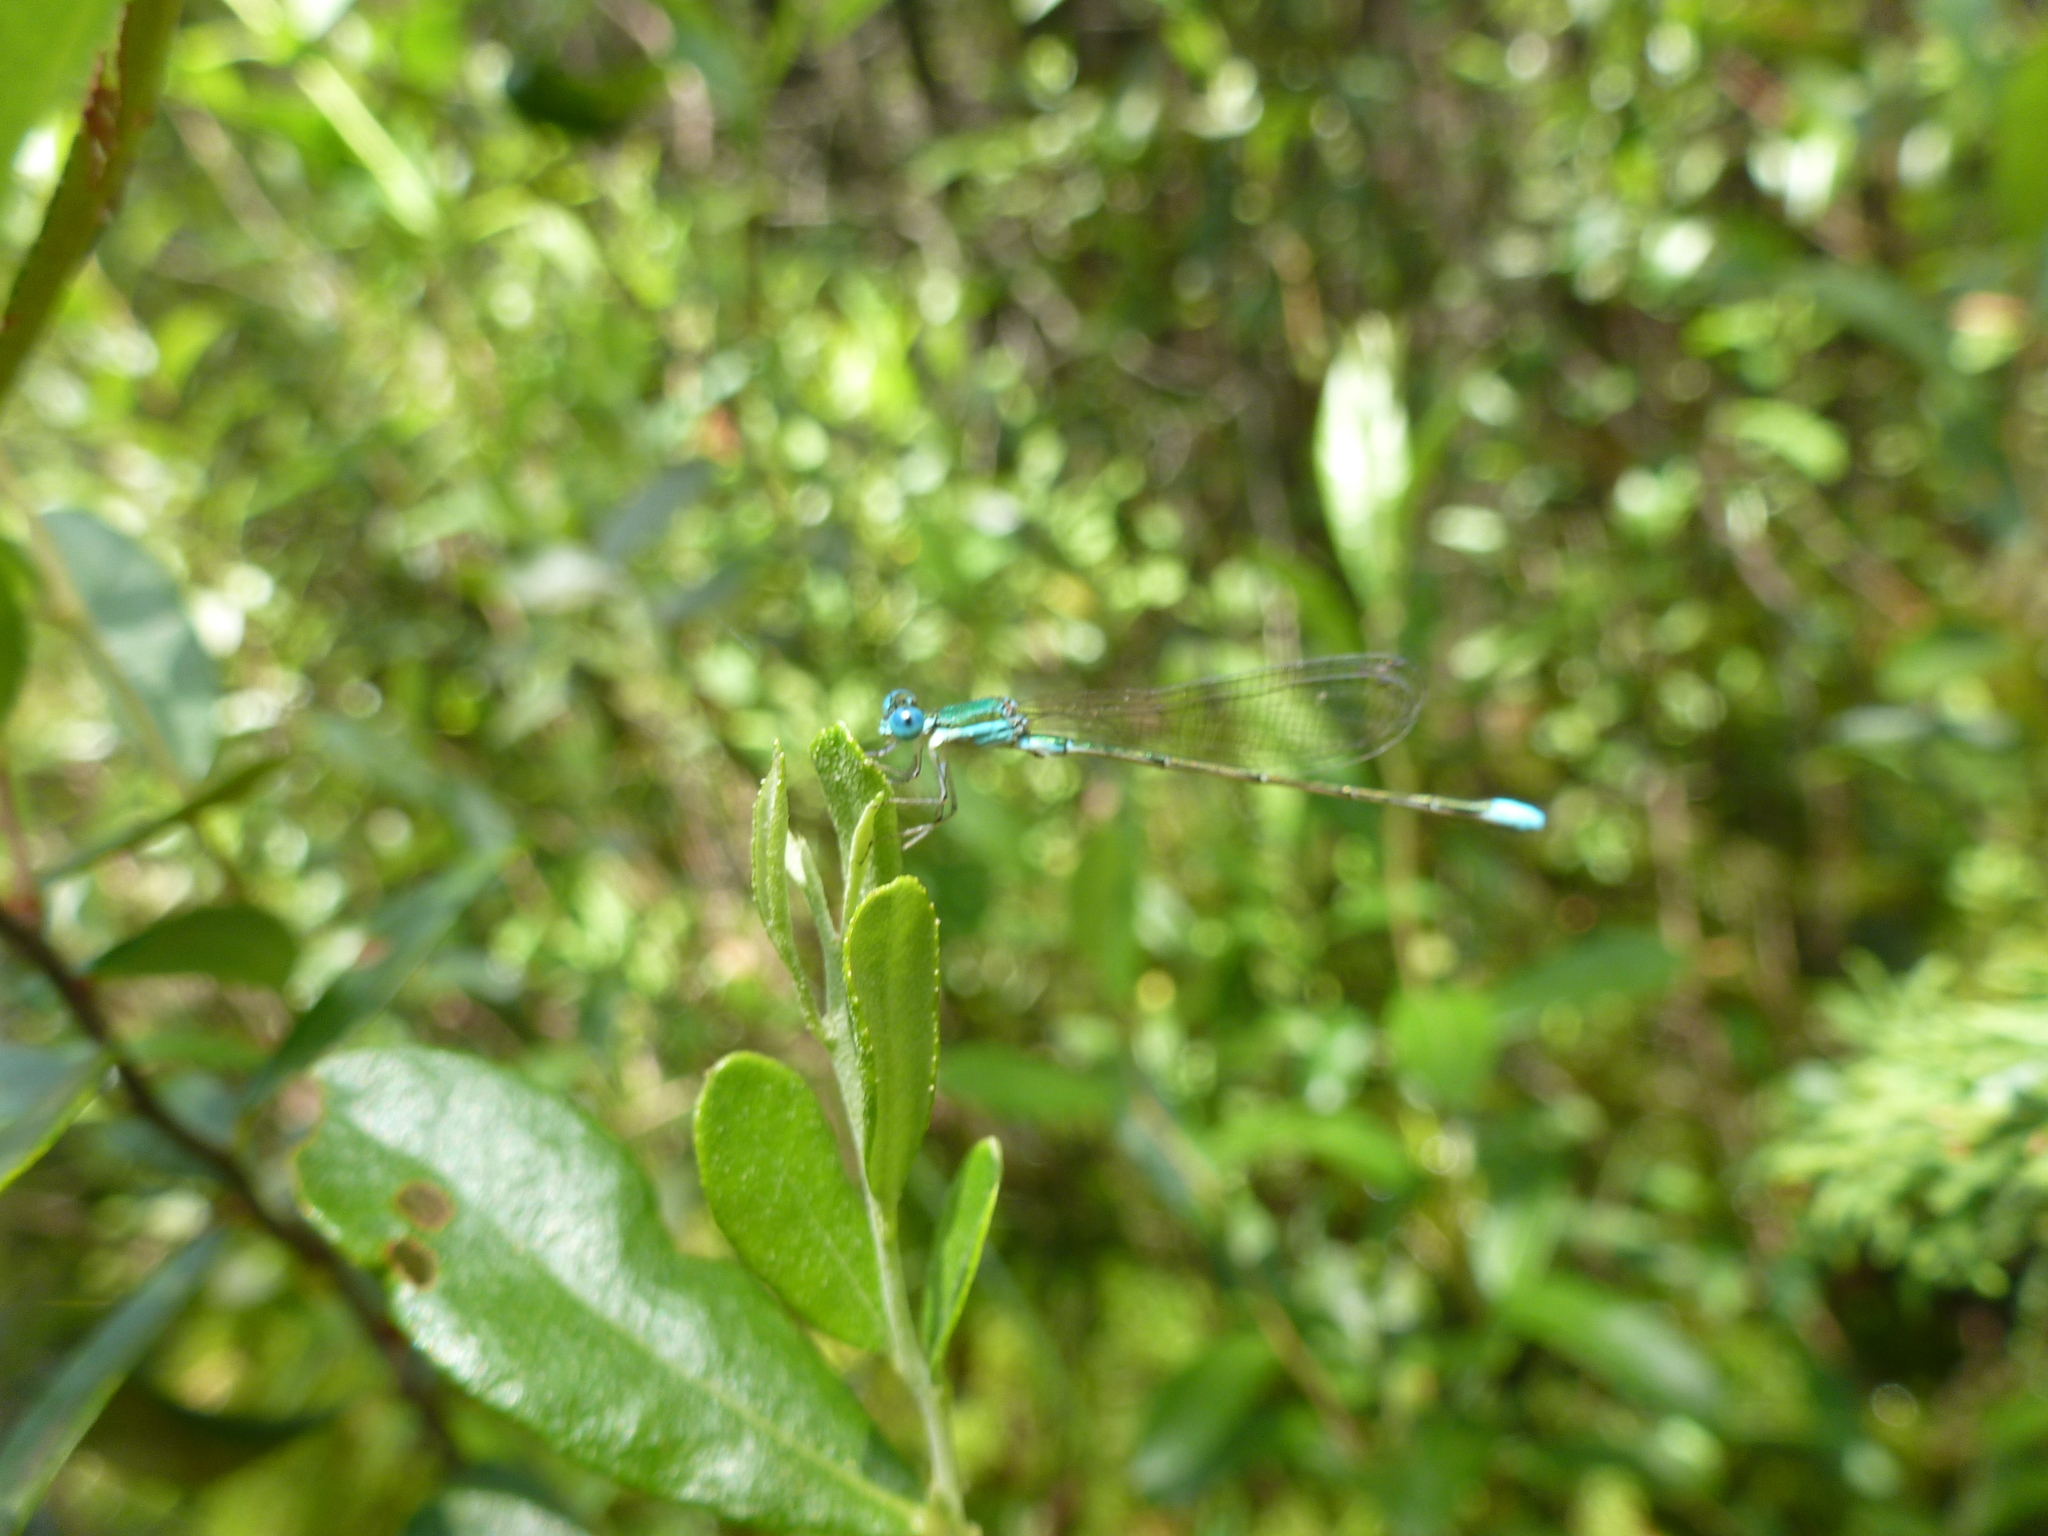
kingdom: Animalia
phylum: Arthropoda
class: Insecta
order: Odonata
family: Coenagrionidae
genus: Nehalennia
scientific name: Nehalennia gracilis
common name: Sphagnum sprite
